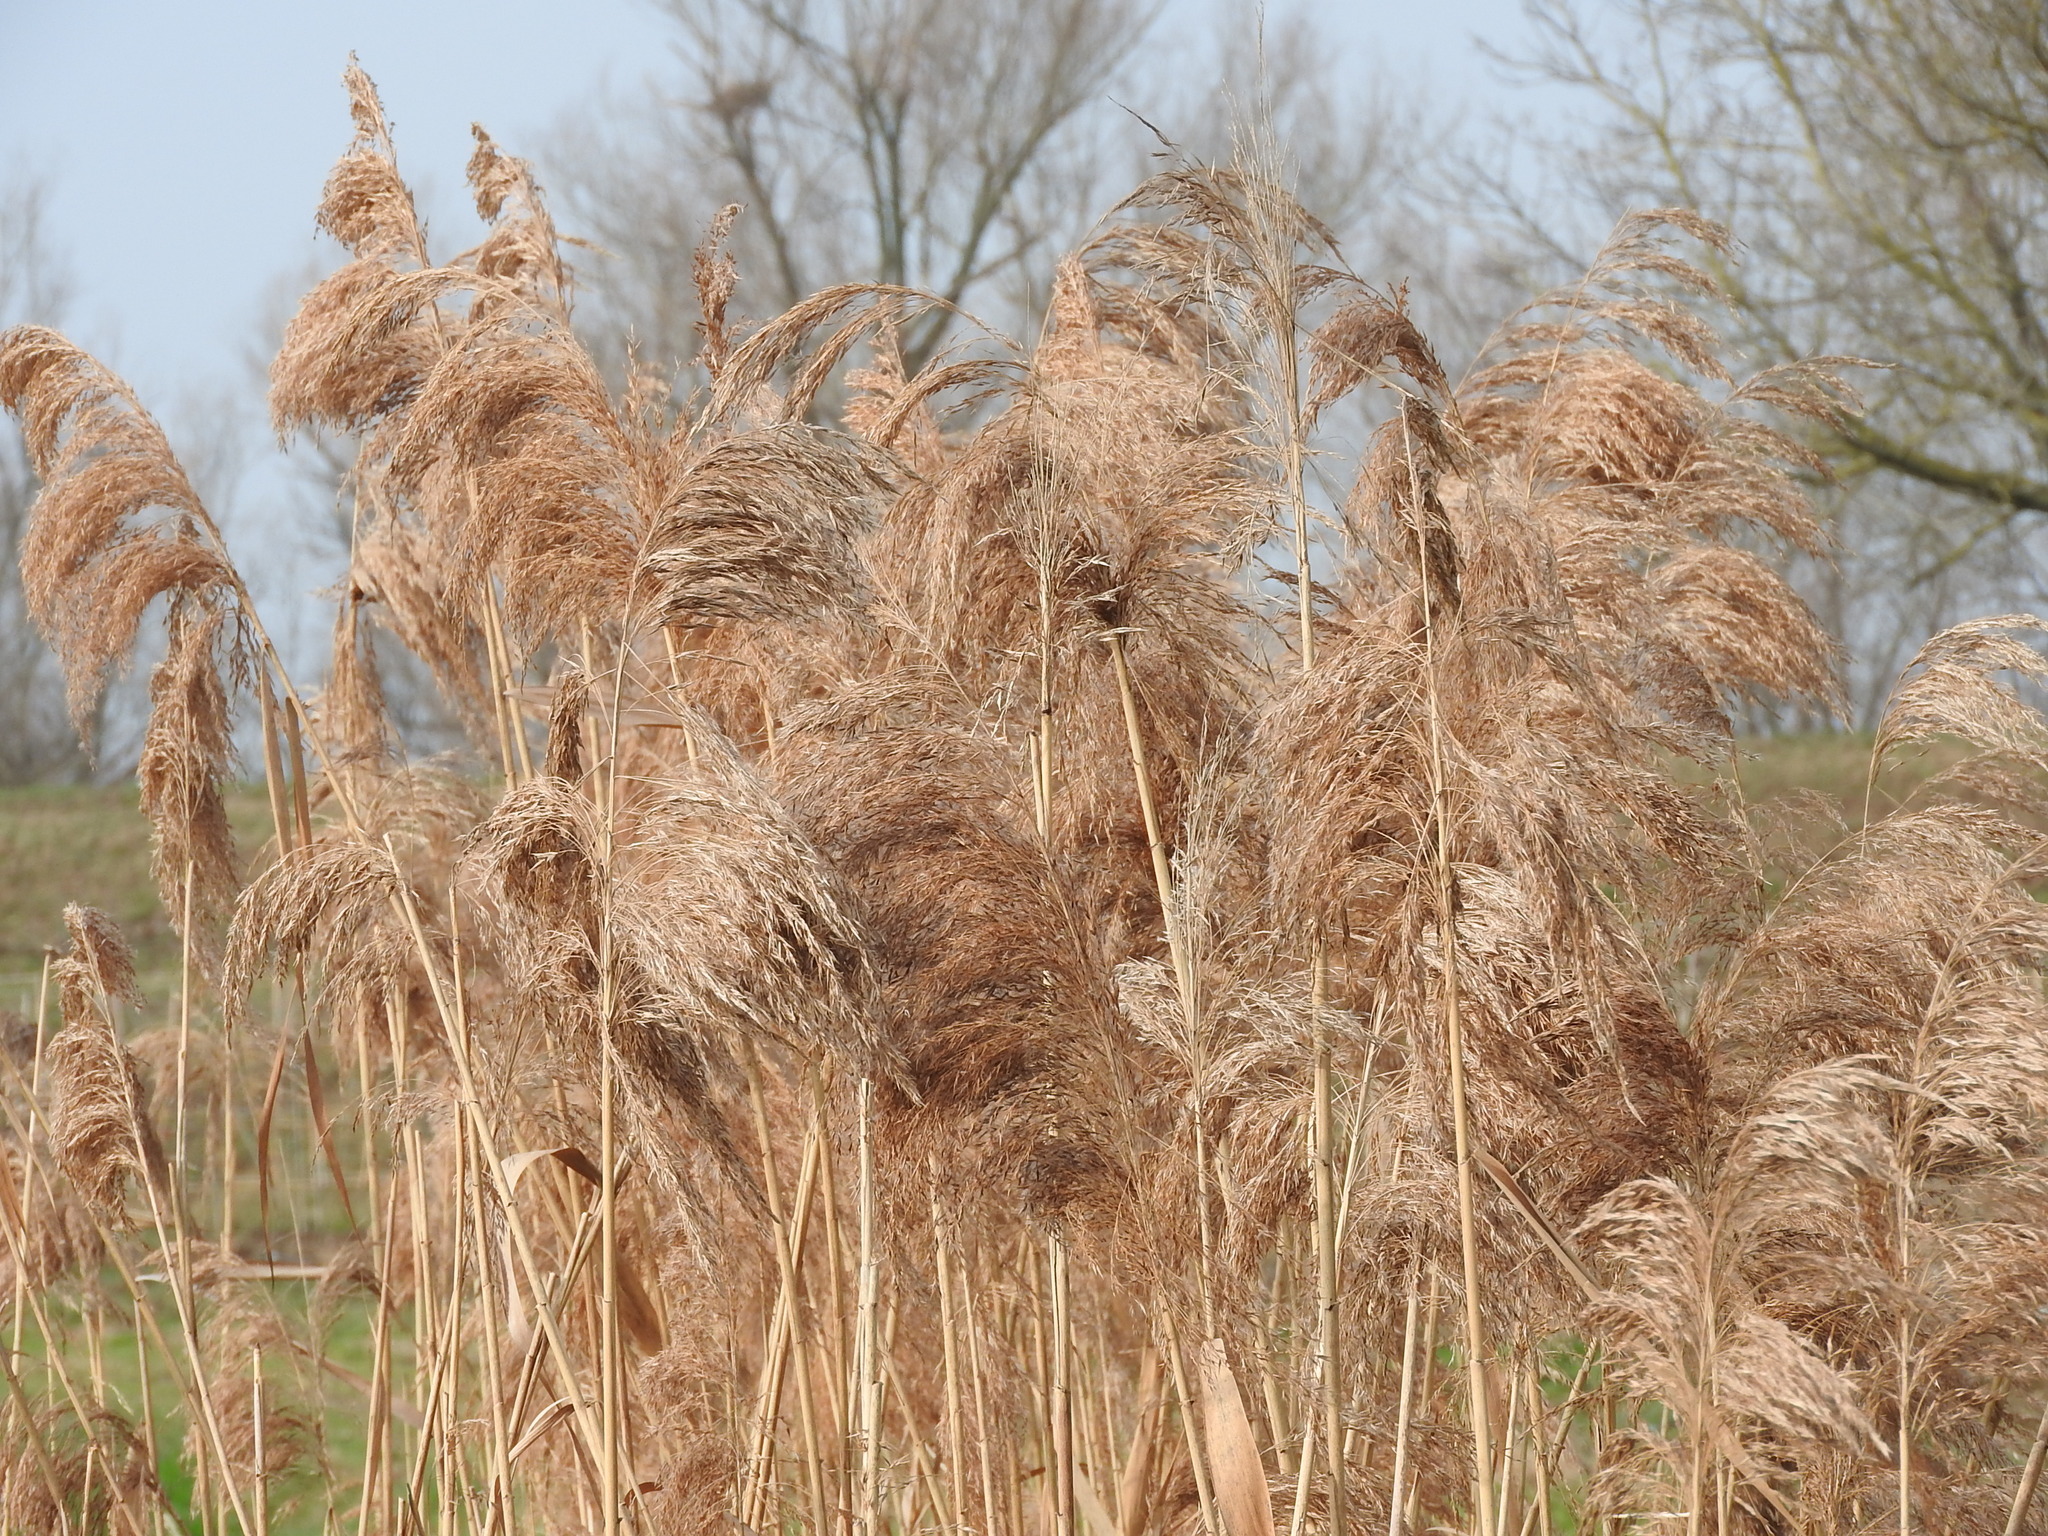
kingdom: Plantae
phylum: Tracheophyta
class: Liliopsida
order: Poales
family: Poaceae
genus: Phragmites
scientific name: Phragmites australis
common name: Common reed
